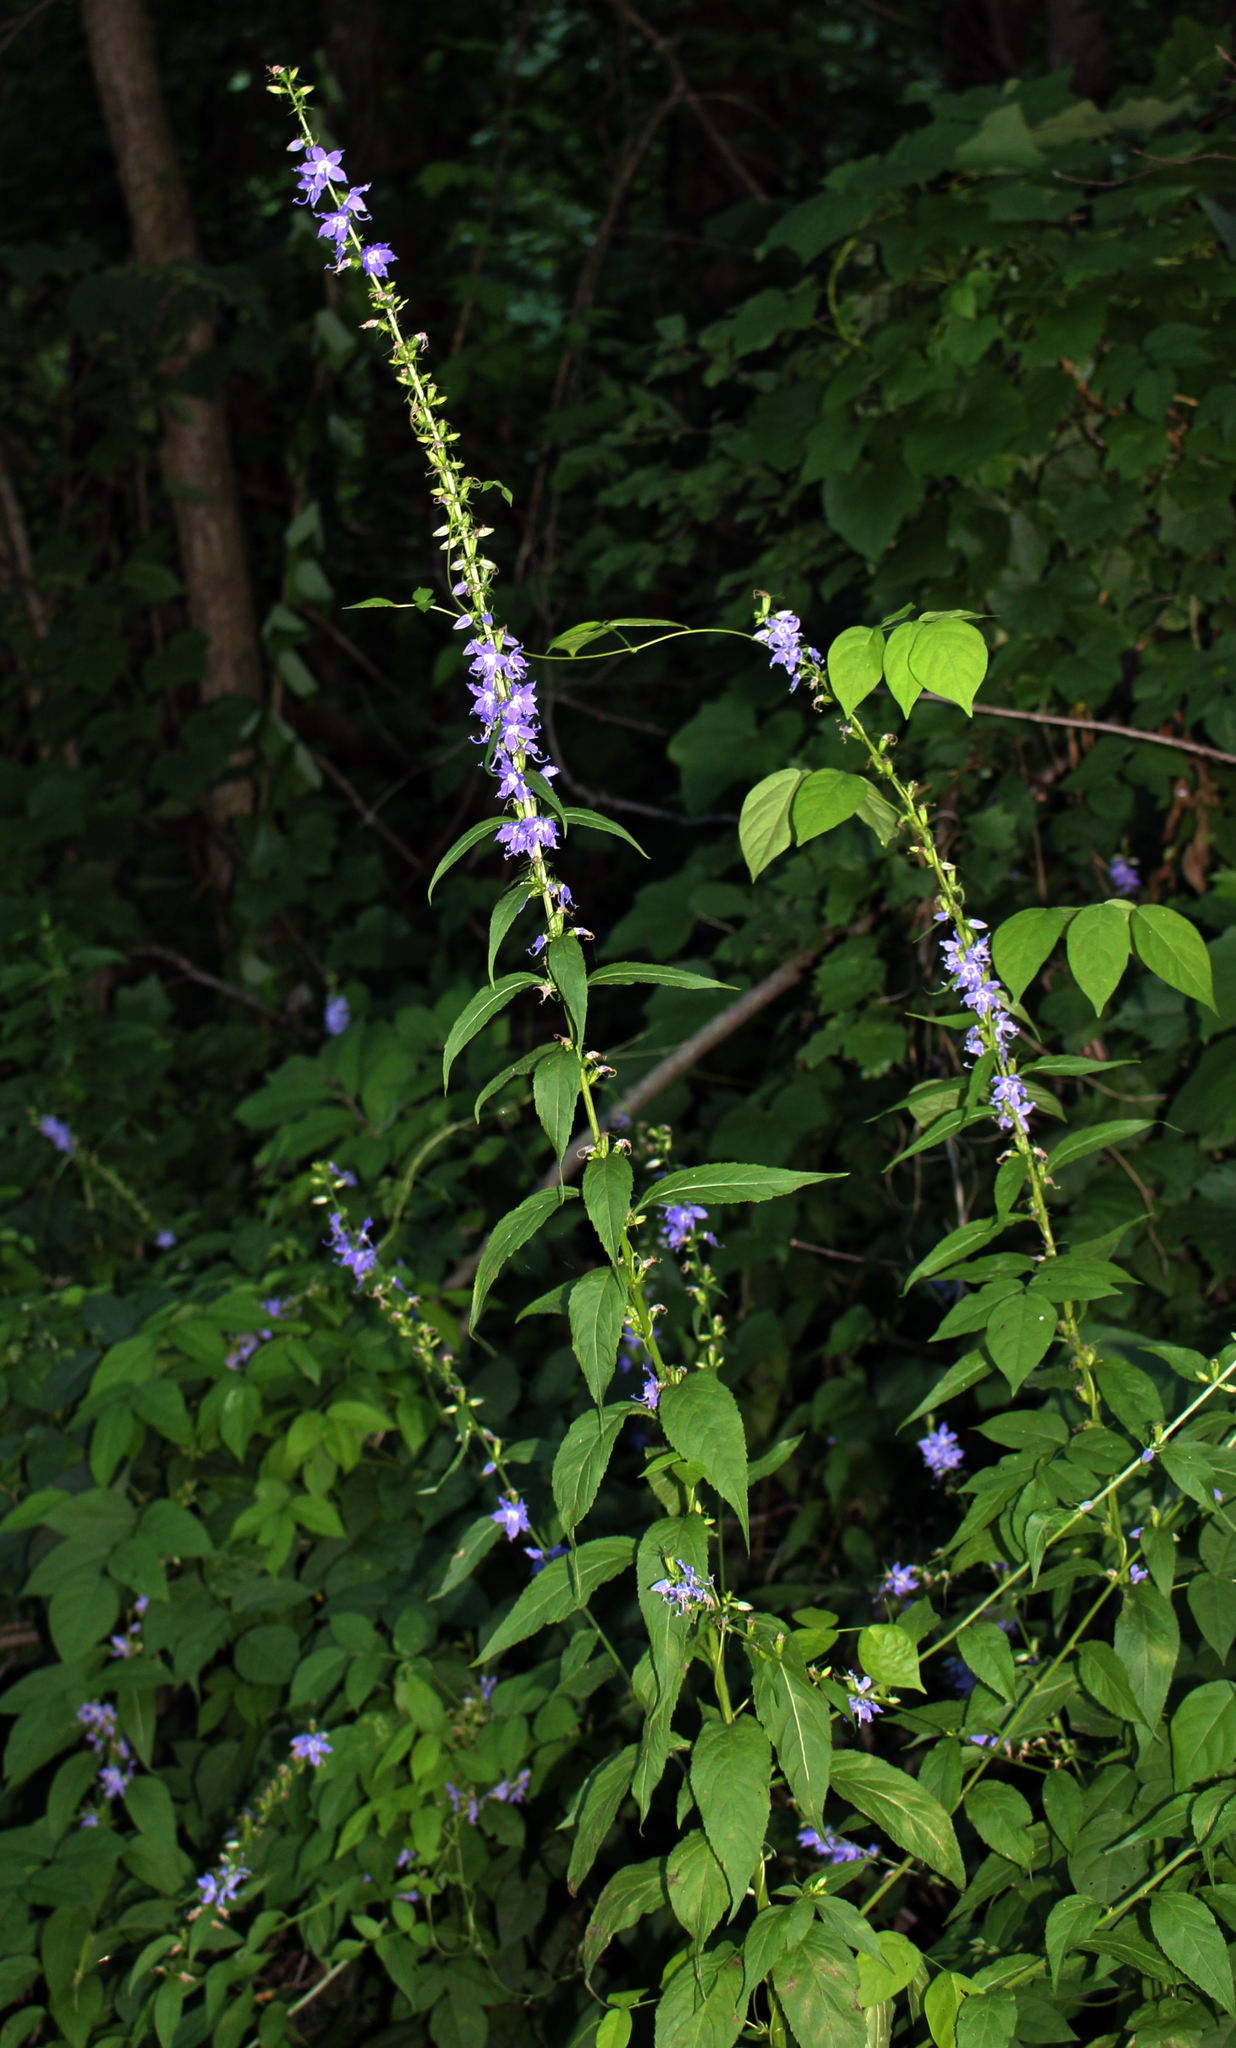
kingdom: Plantae
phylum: Tracheophyta
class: Magnoliopsida
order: Asterales
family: Campanulaceae
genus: Campanulastrum
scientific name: Campanulastrum americanum
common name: American bellflower
